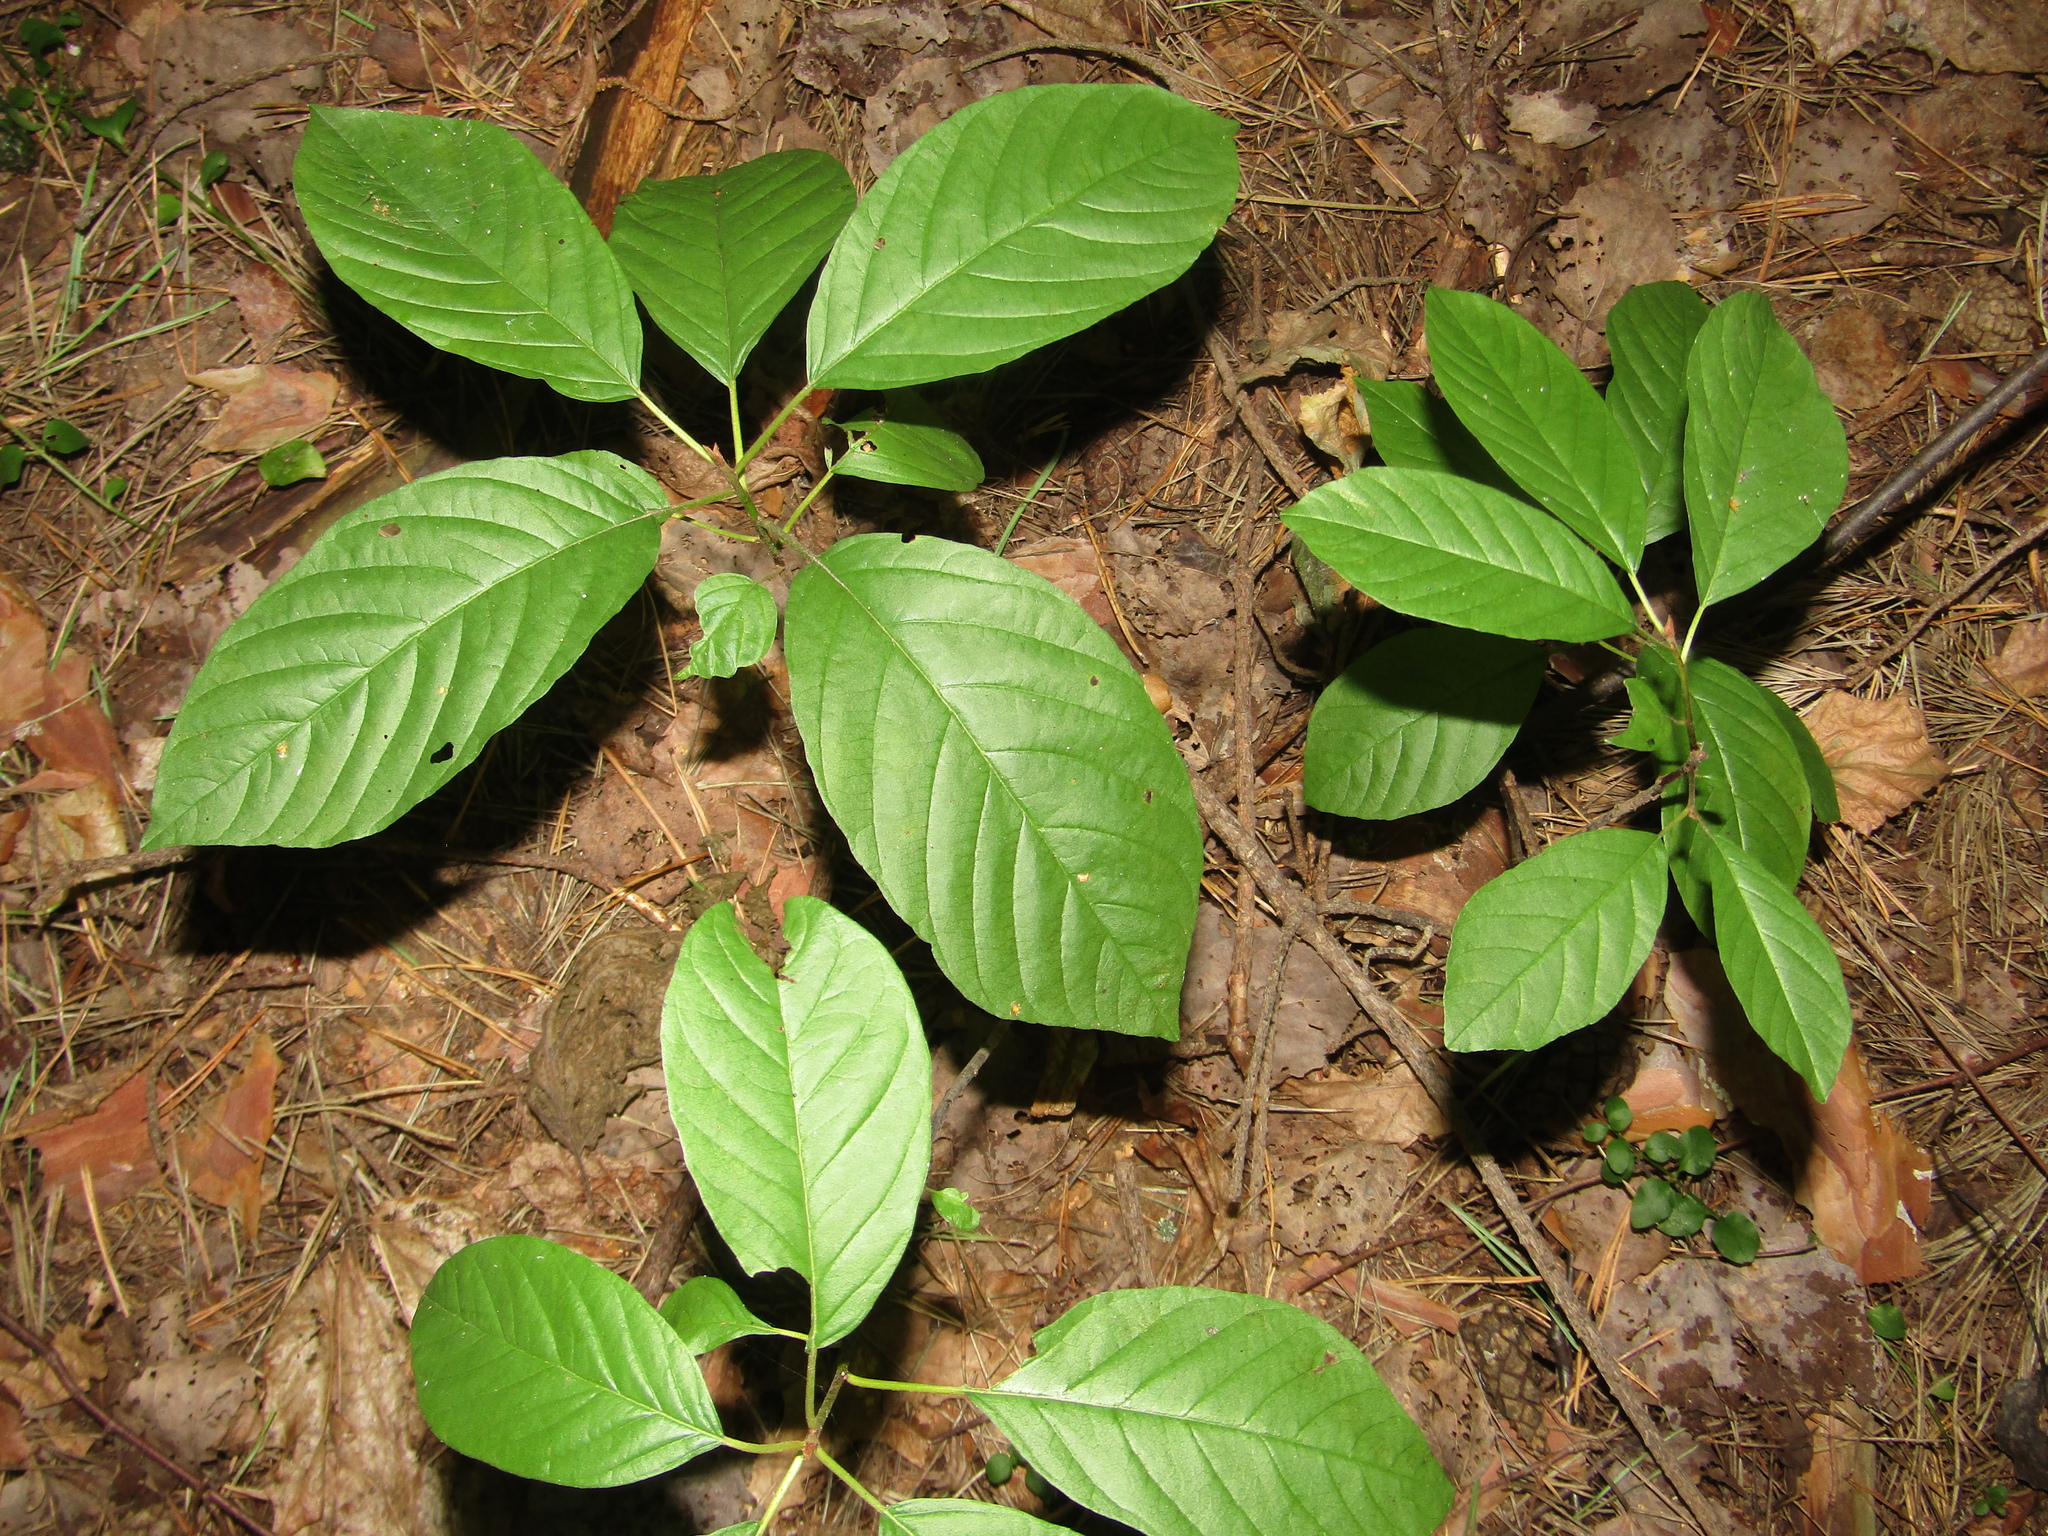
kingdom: Plantae
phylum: Tracheophyta
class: Magnoliopsida
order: Rosales
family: Rhamnaceae
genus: Frangula
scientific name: Frangula alnus
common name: Alder buckthorn
